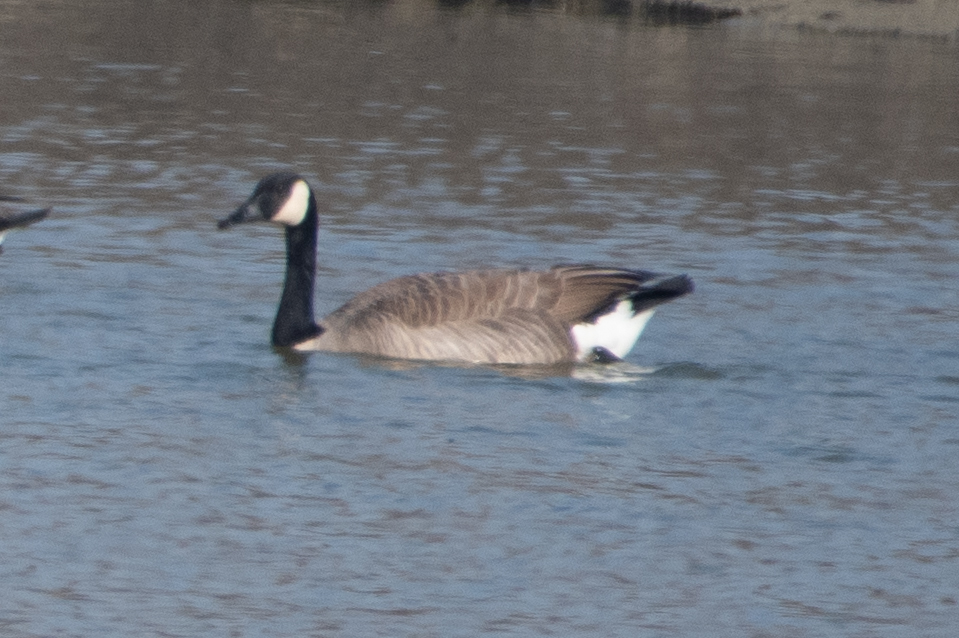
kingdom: Animalia
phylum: Chordata
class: Aves
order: Anseriformes
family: Anatidae
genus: Branta
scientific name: Branta canadensis
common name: Canada goose
